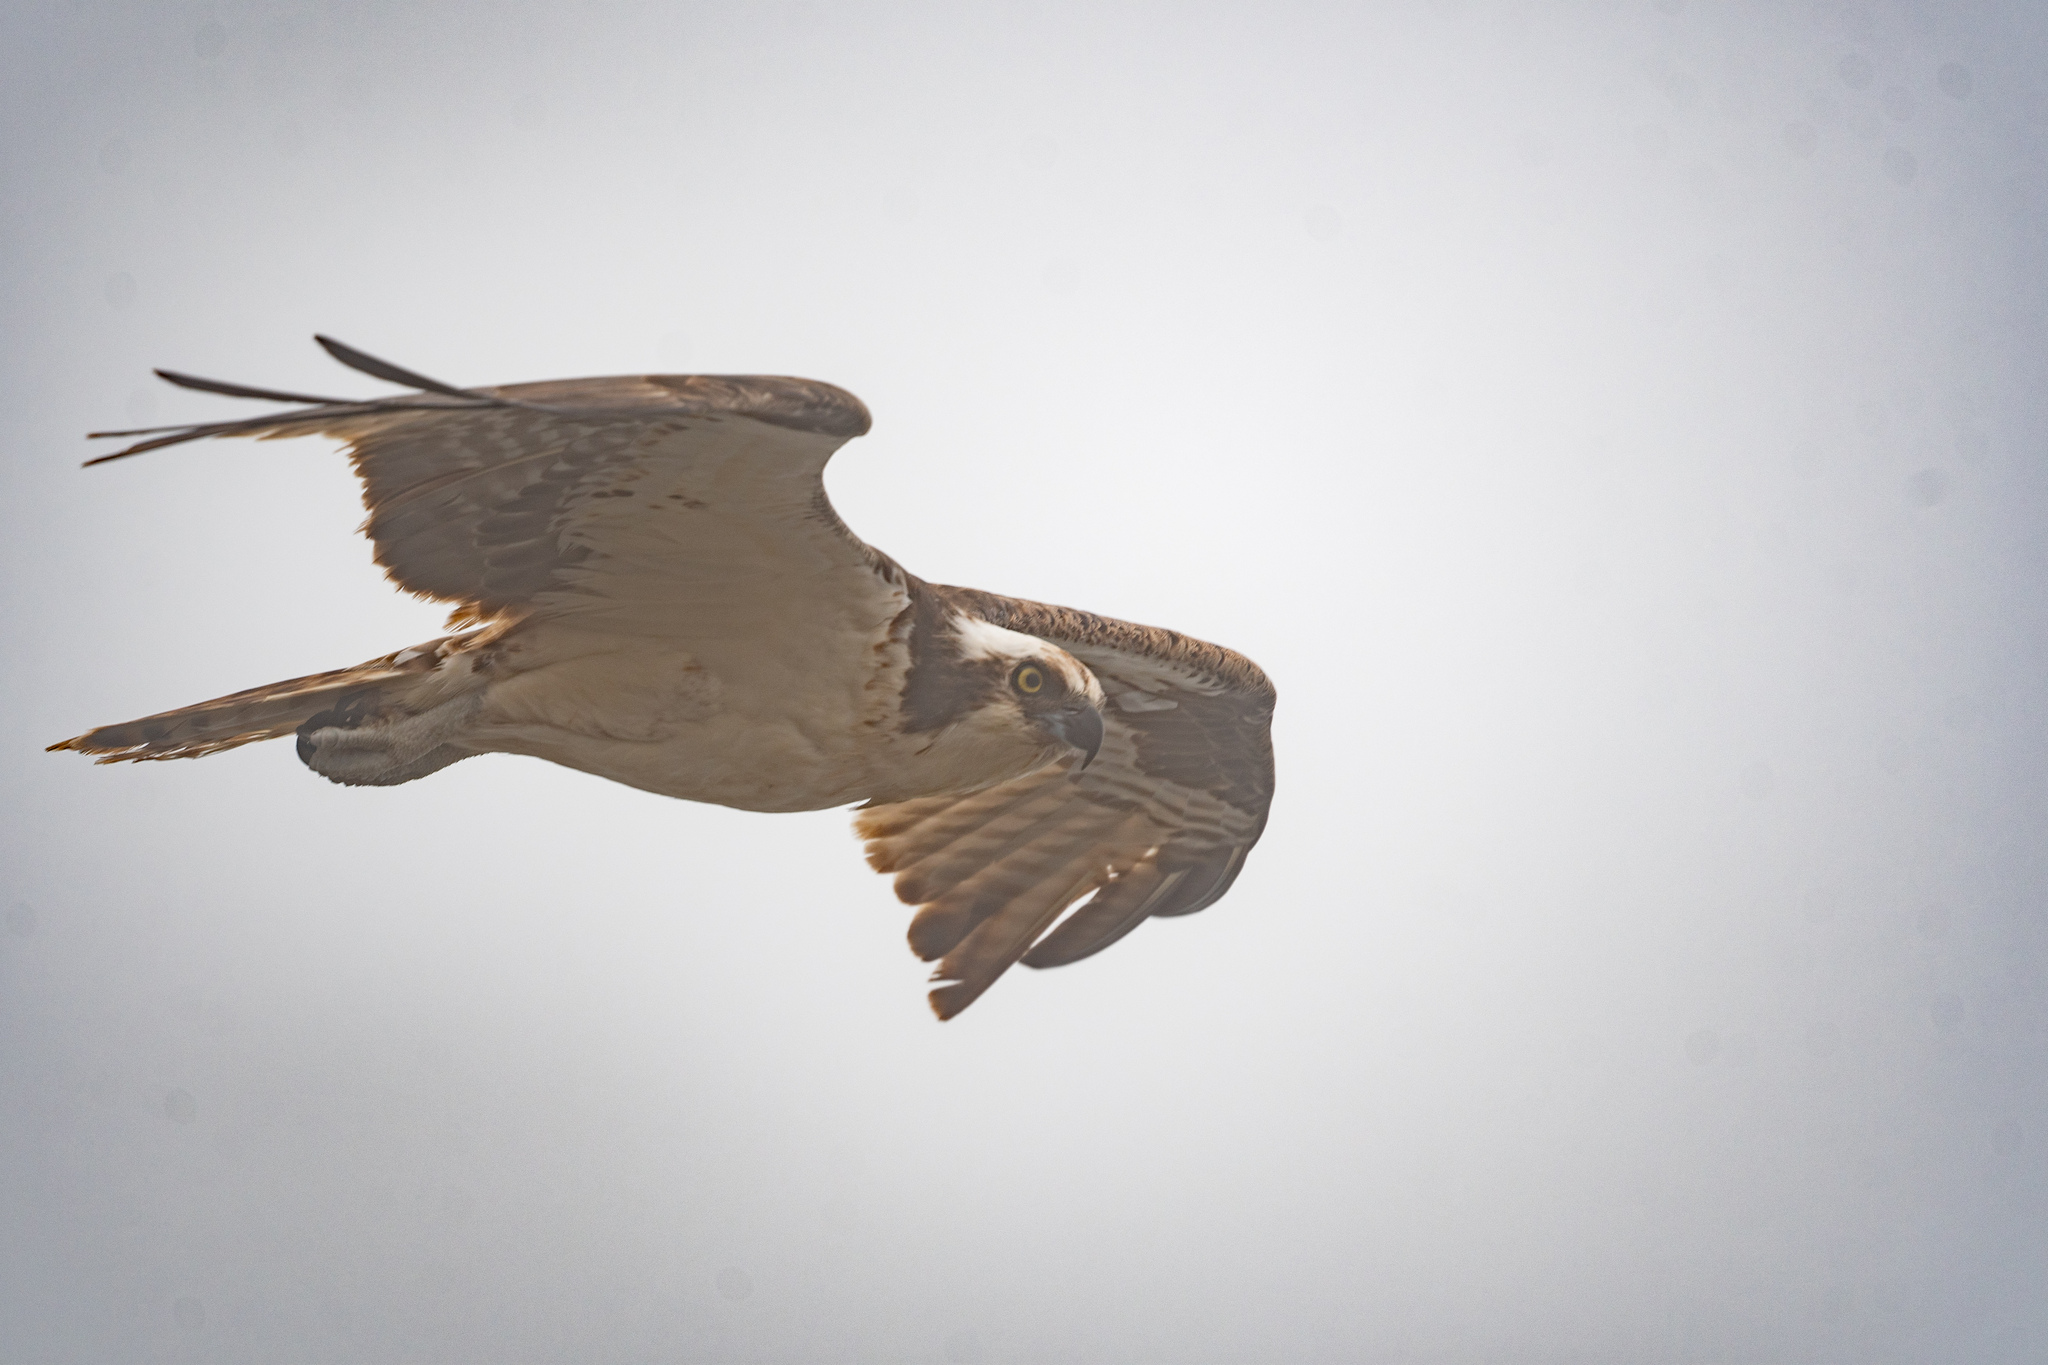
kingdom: Animalia
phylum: Chordata
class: Aves
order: Accipitriformes
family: Pandionidae
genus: Pandion
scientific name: Pandion haliaetus
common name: Osprey
